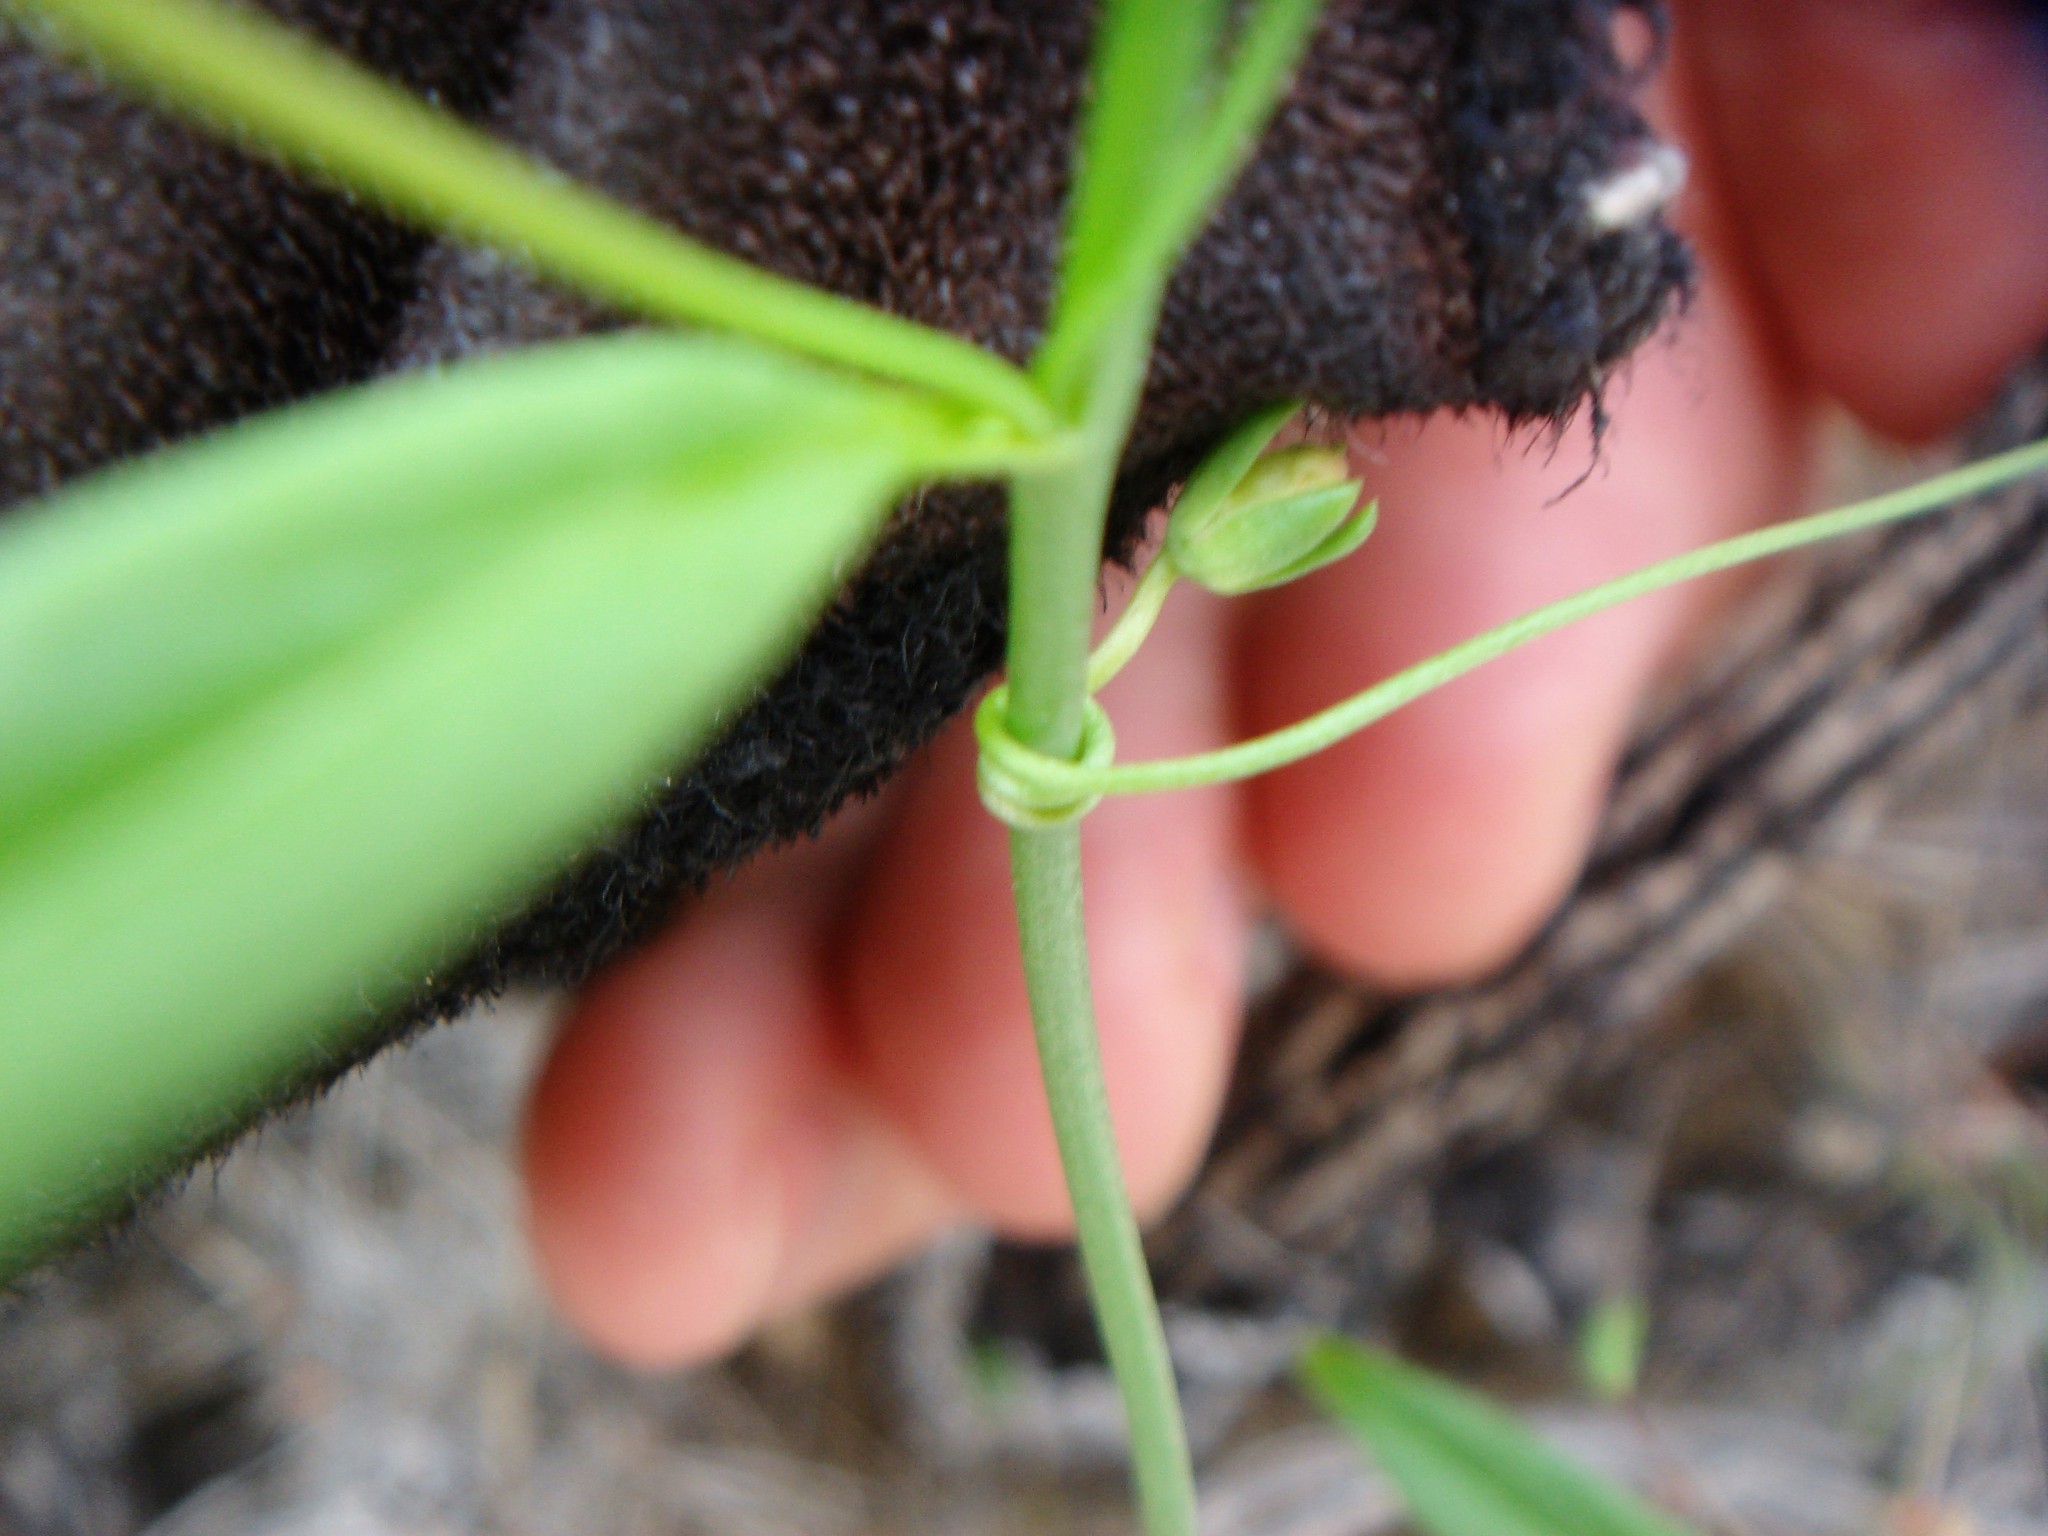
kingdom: Plantae
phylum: Tracheophyta
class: Magnoliopsida
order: Lamiales
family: Plantaginaceae
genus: Neogaerrhinum
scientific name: Neogaerrhinum filipes
